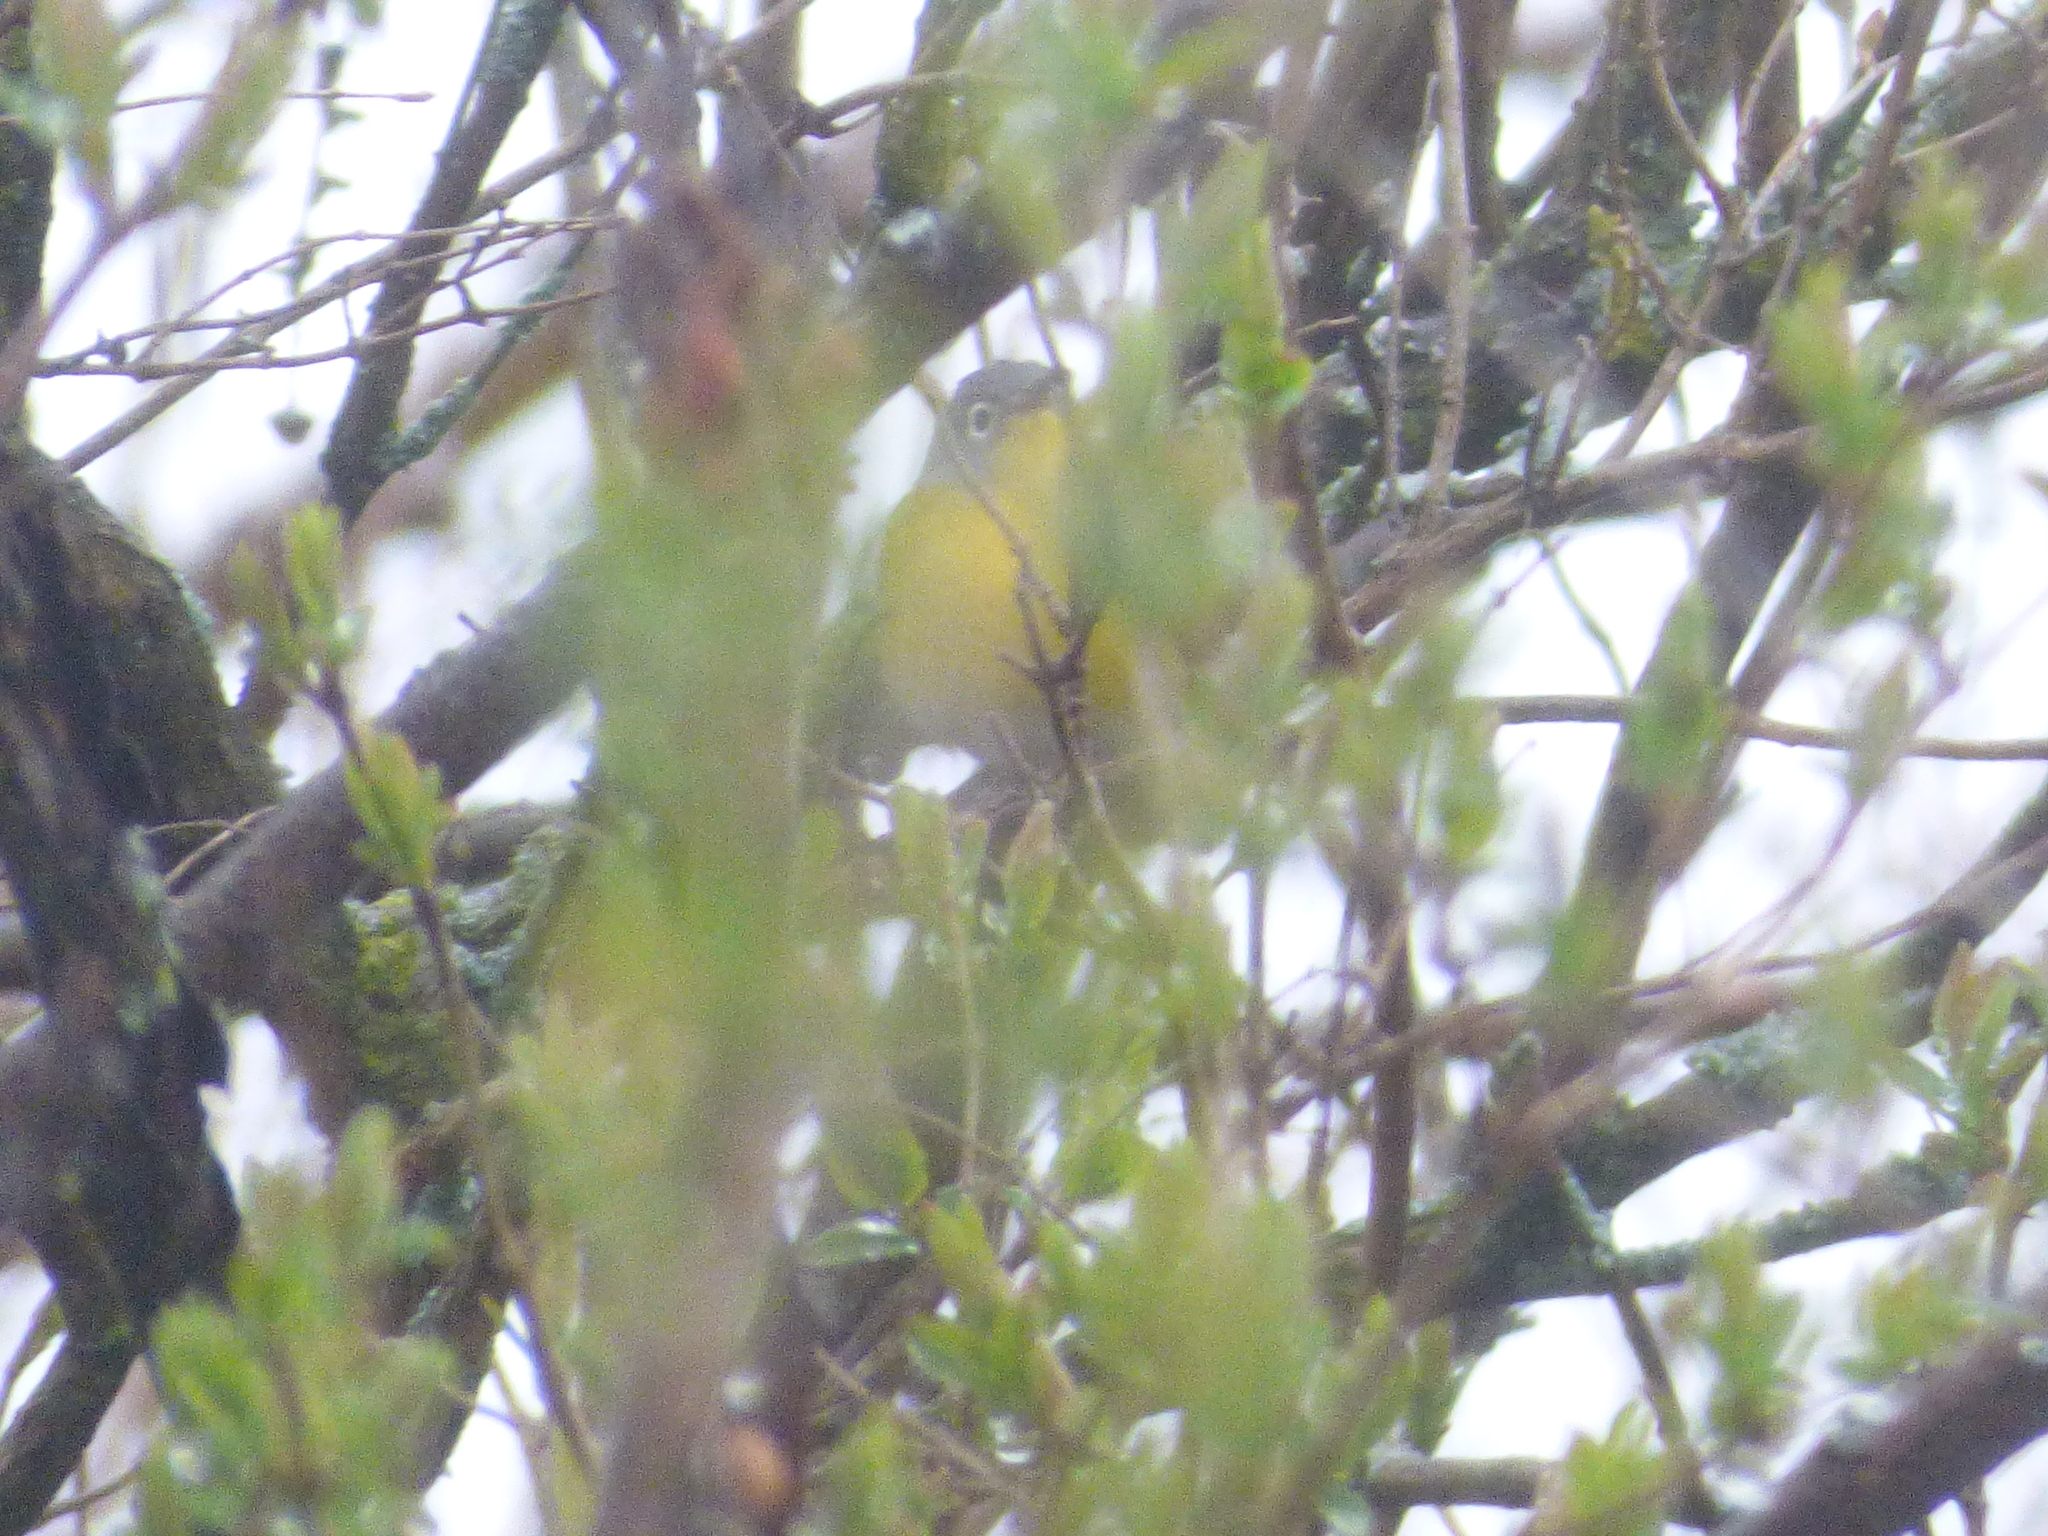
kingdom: Animalia
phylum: Chordata
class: Aves
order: Passeriformes
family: Parulidae
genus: Leiothlypis
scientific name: Leiothlypis ruficapilla
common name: Nashville warbler
